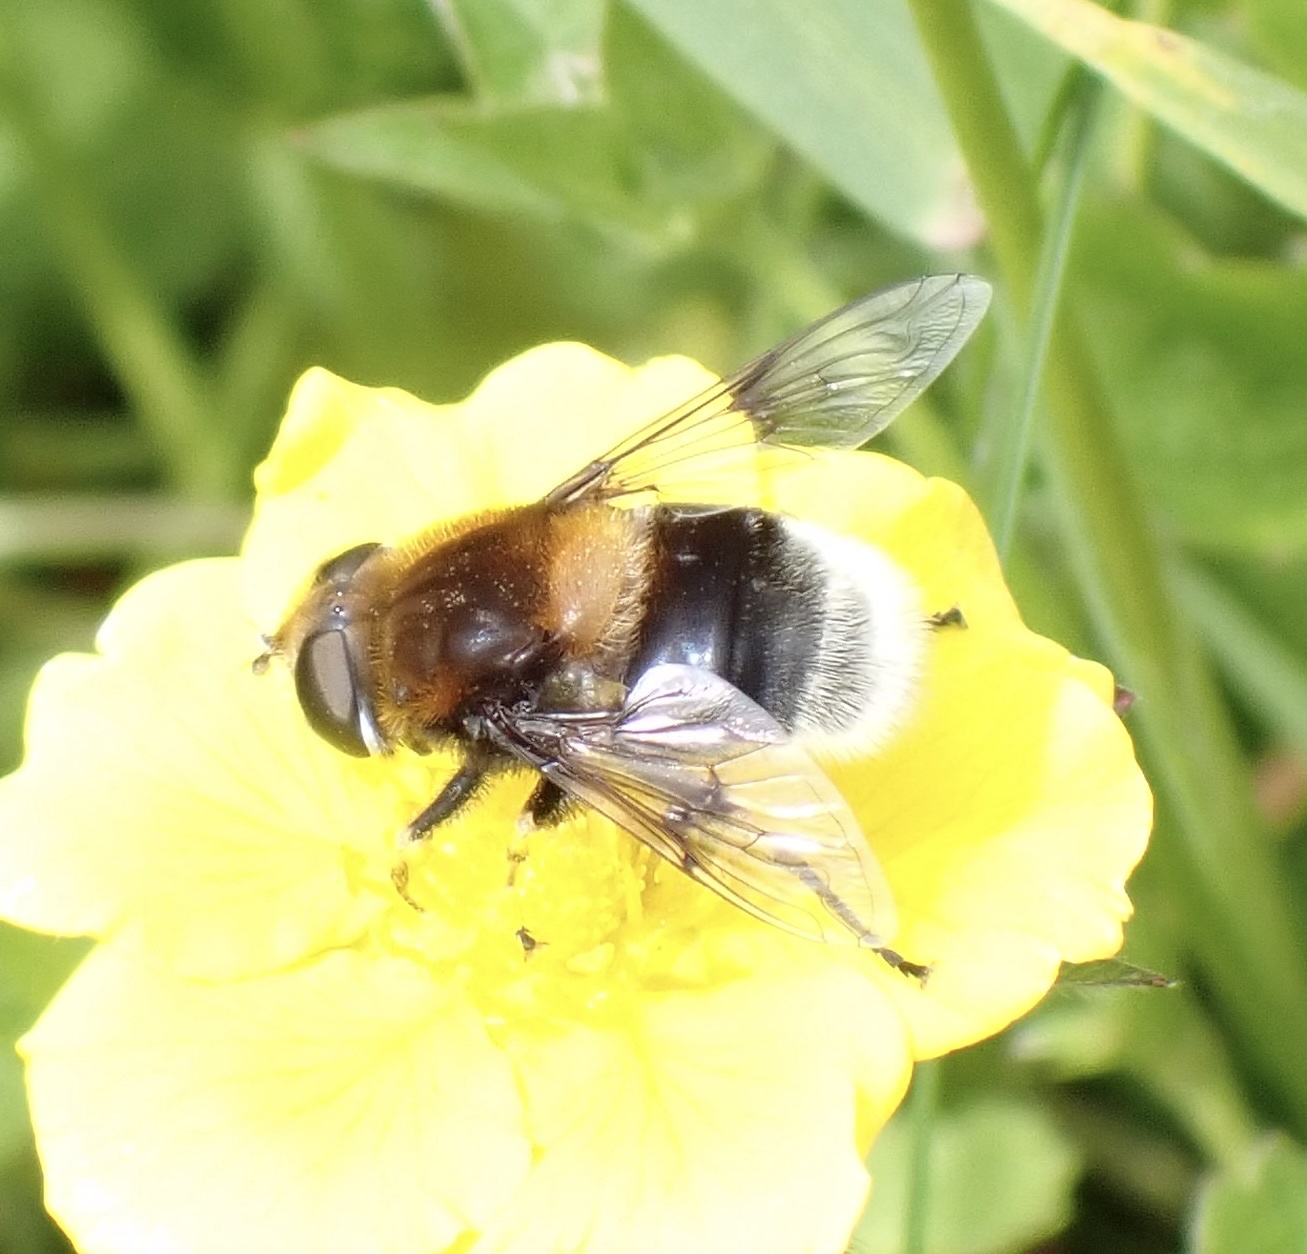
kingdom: Animalia
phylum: Arthropoda
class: Insecta
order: Diptera
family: Syrphidae
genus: Eristalis
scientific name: Eristalis intricaria
